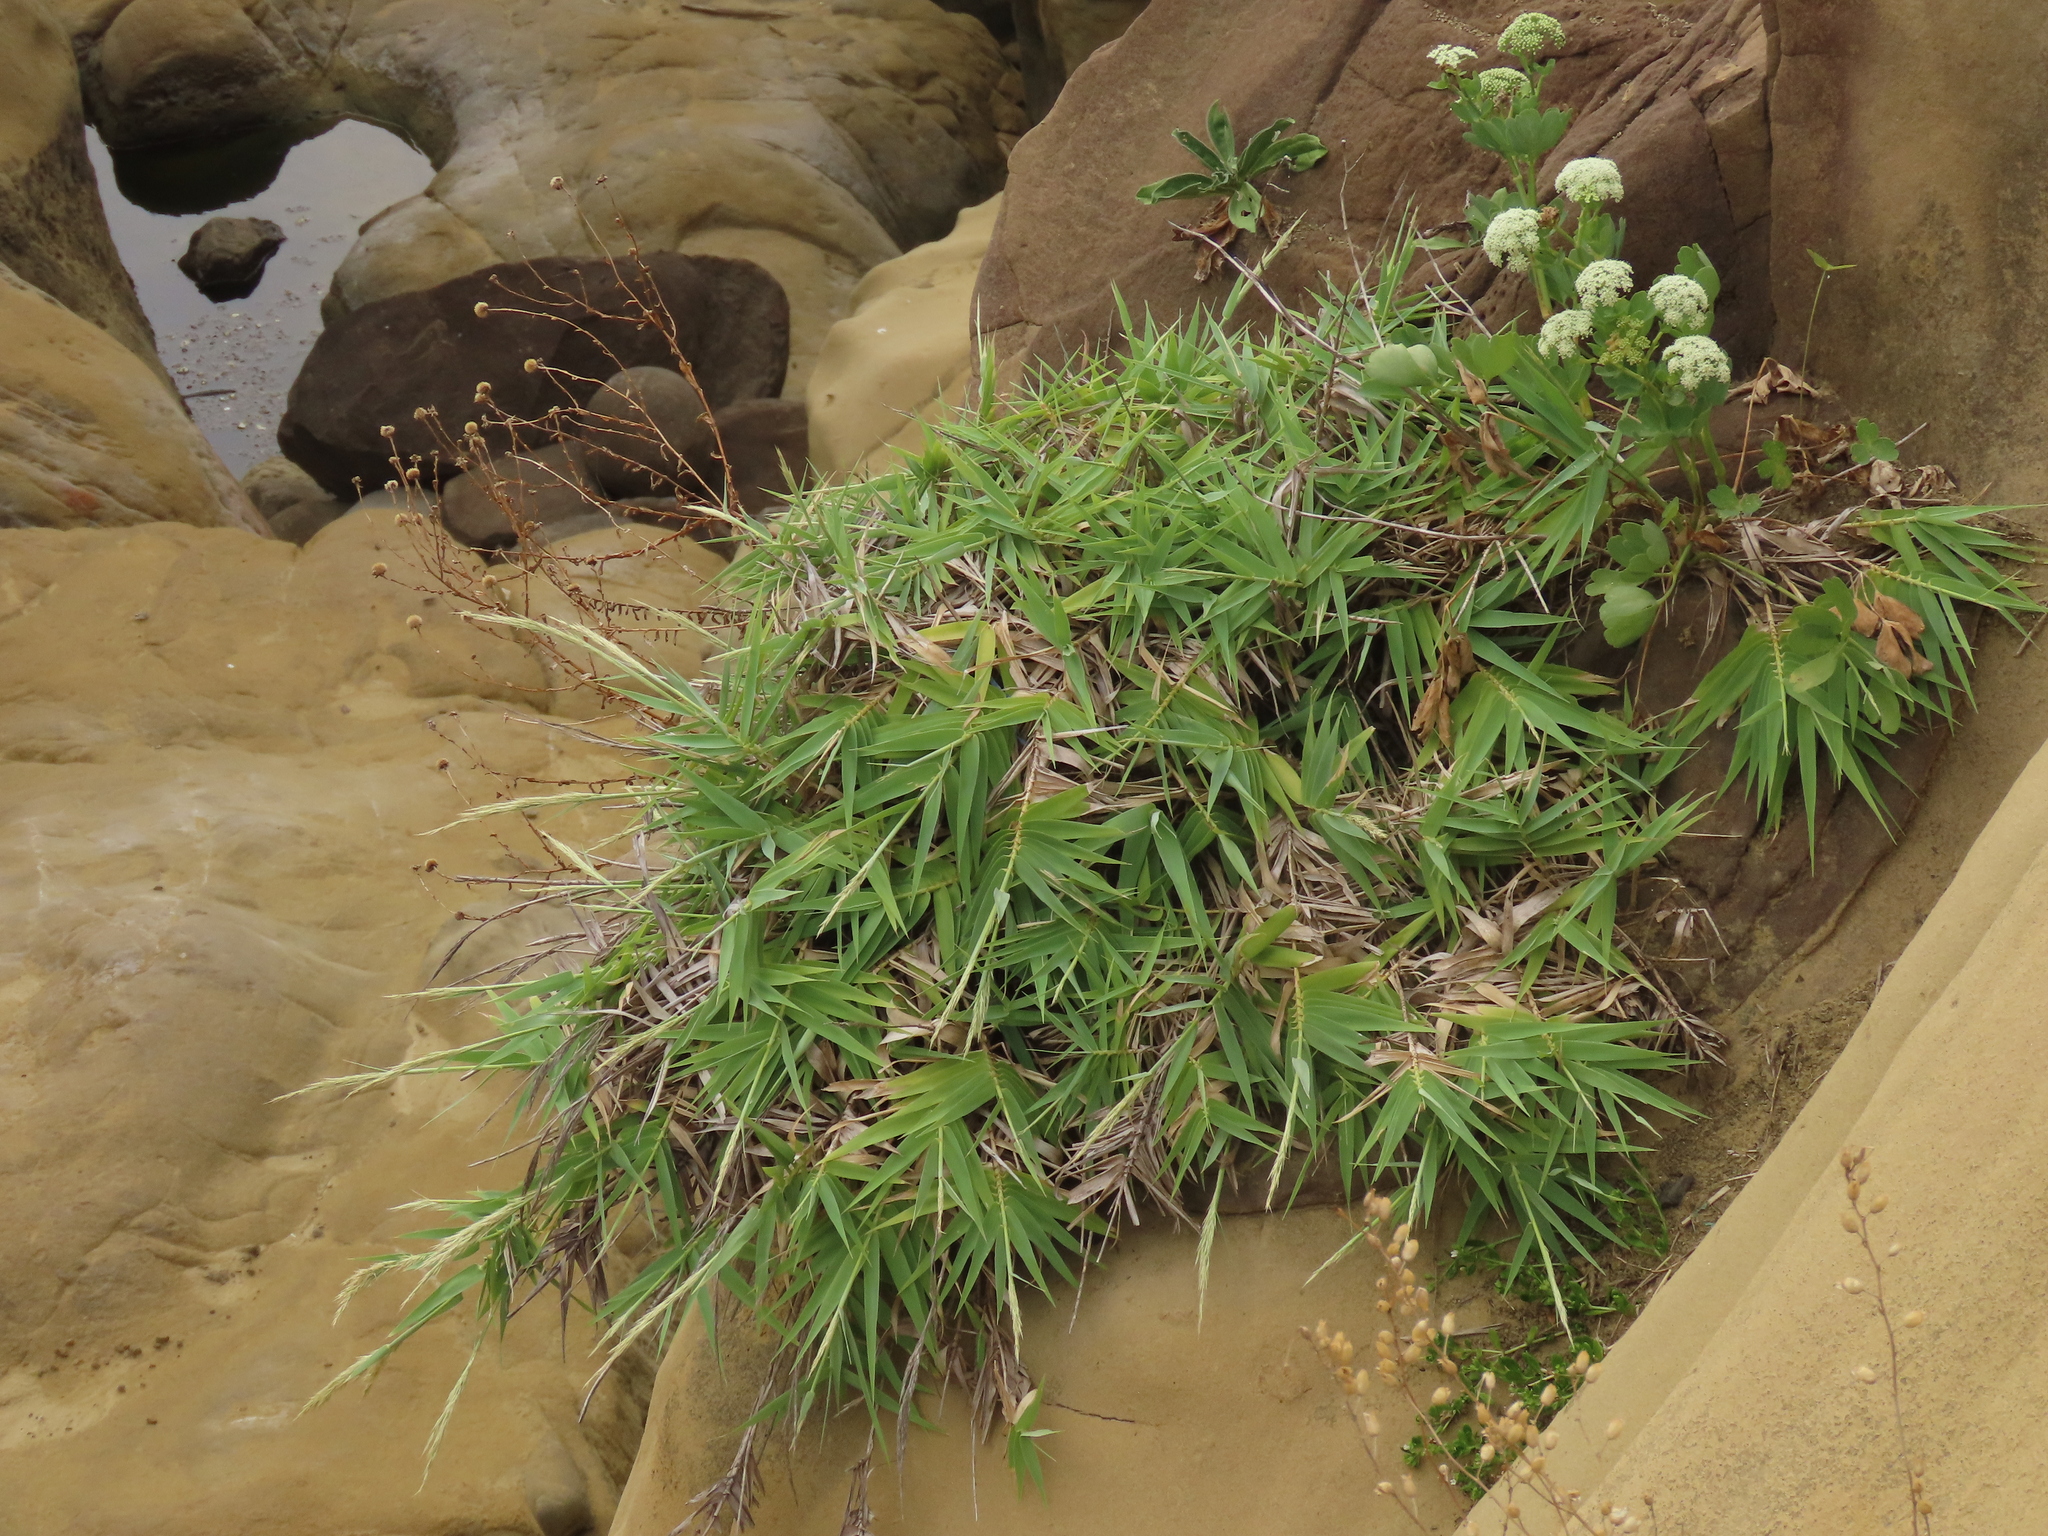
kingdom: Plantae
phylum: Tracheophyta
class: Liliopsida
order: Poales
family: Poaceae
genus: Arundo
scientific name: Arundo formosana
